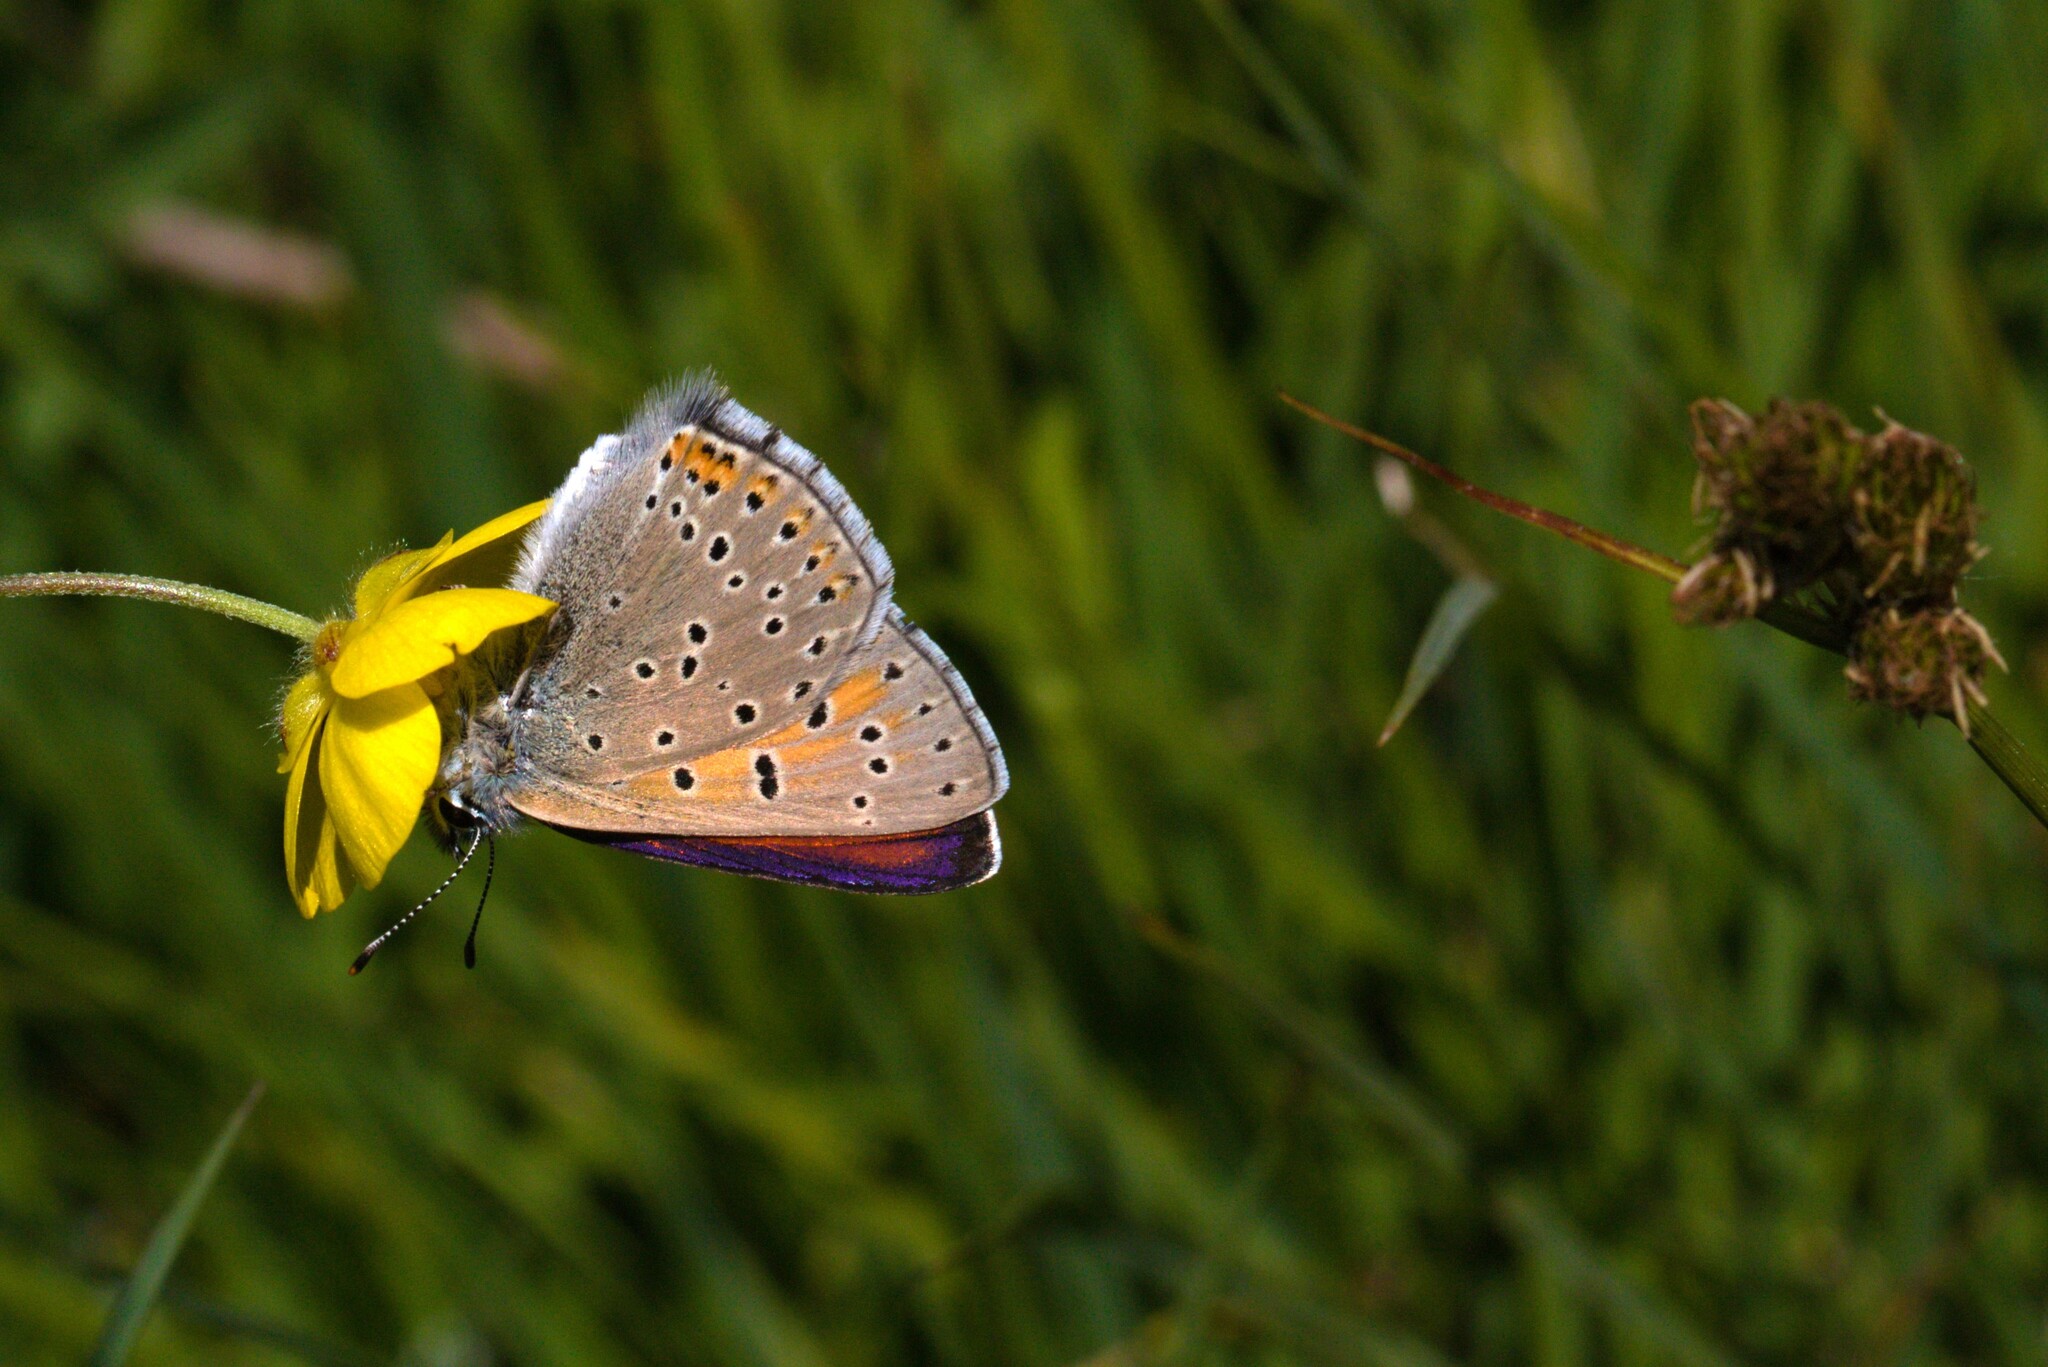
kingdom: Animalia
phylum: Arthropoda
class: Insecta
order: Lepidoptera
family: Lycaenidae
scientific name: Lycaenidae
